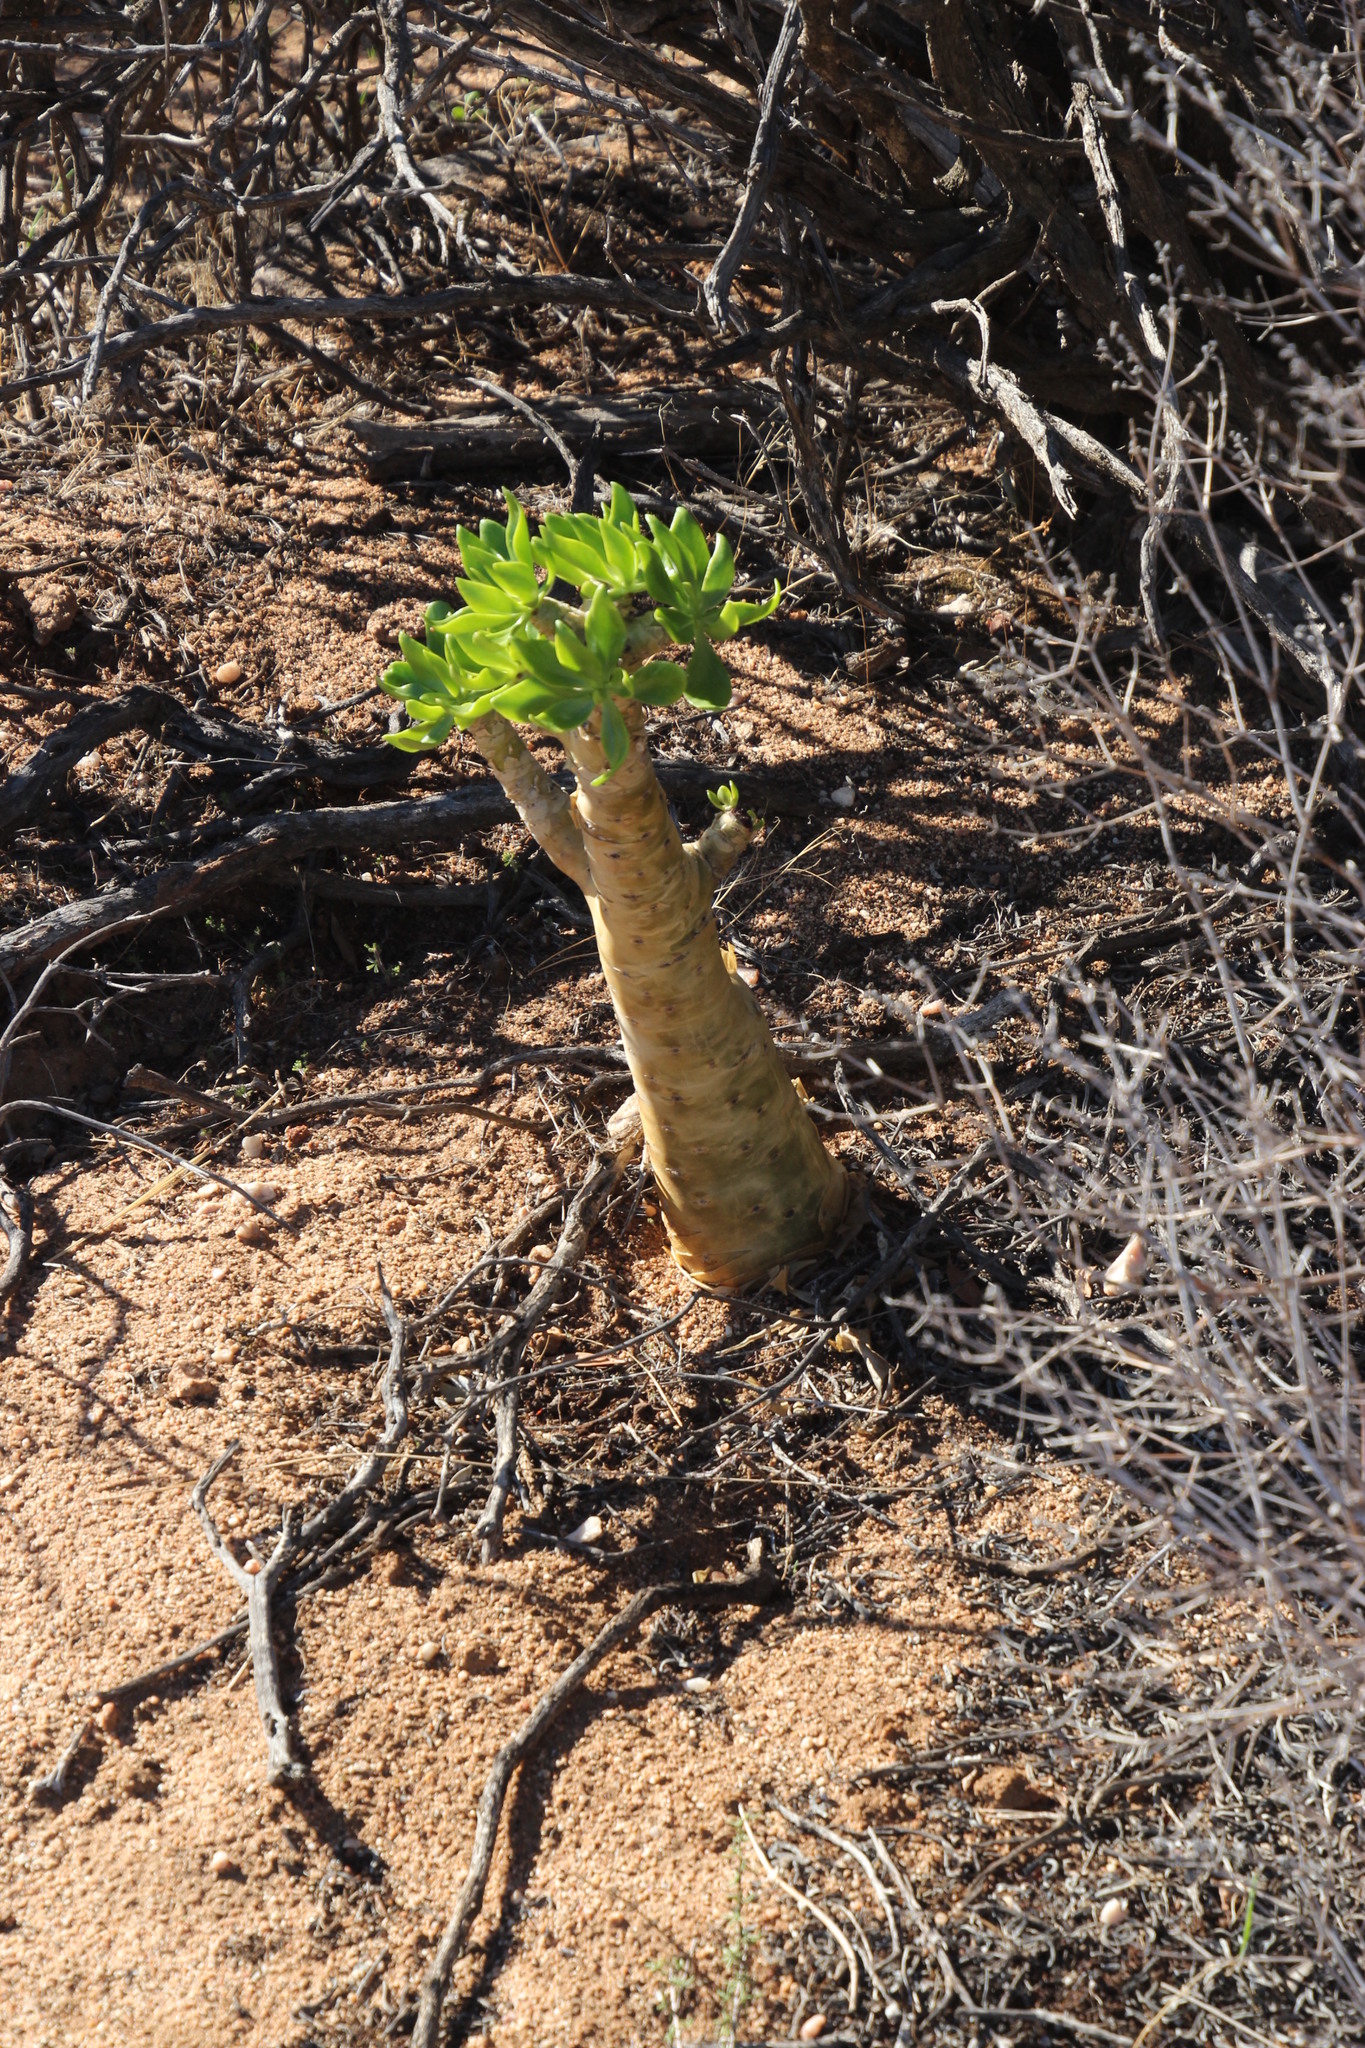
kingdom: Plantae
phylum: Tracheophyta
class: Magnoliopsida
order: Saxifragales
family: Crassulaceae
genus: Tylecodon
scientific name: Tylecodon paniculatus
